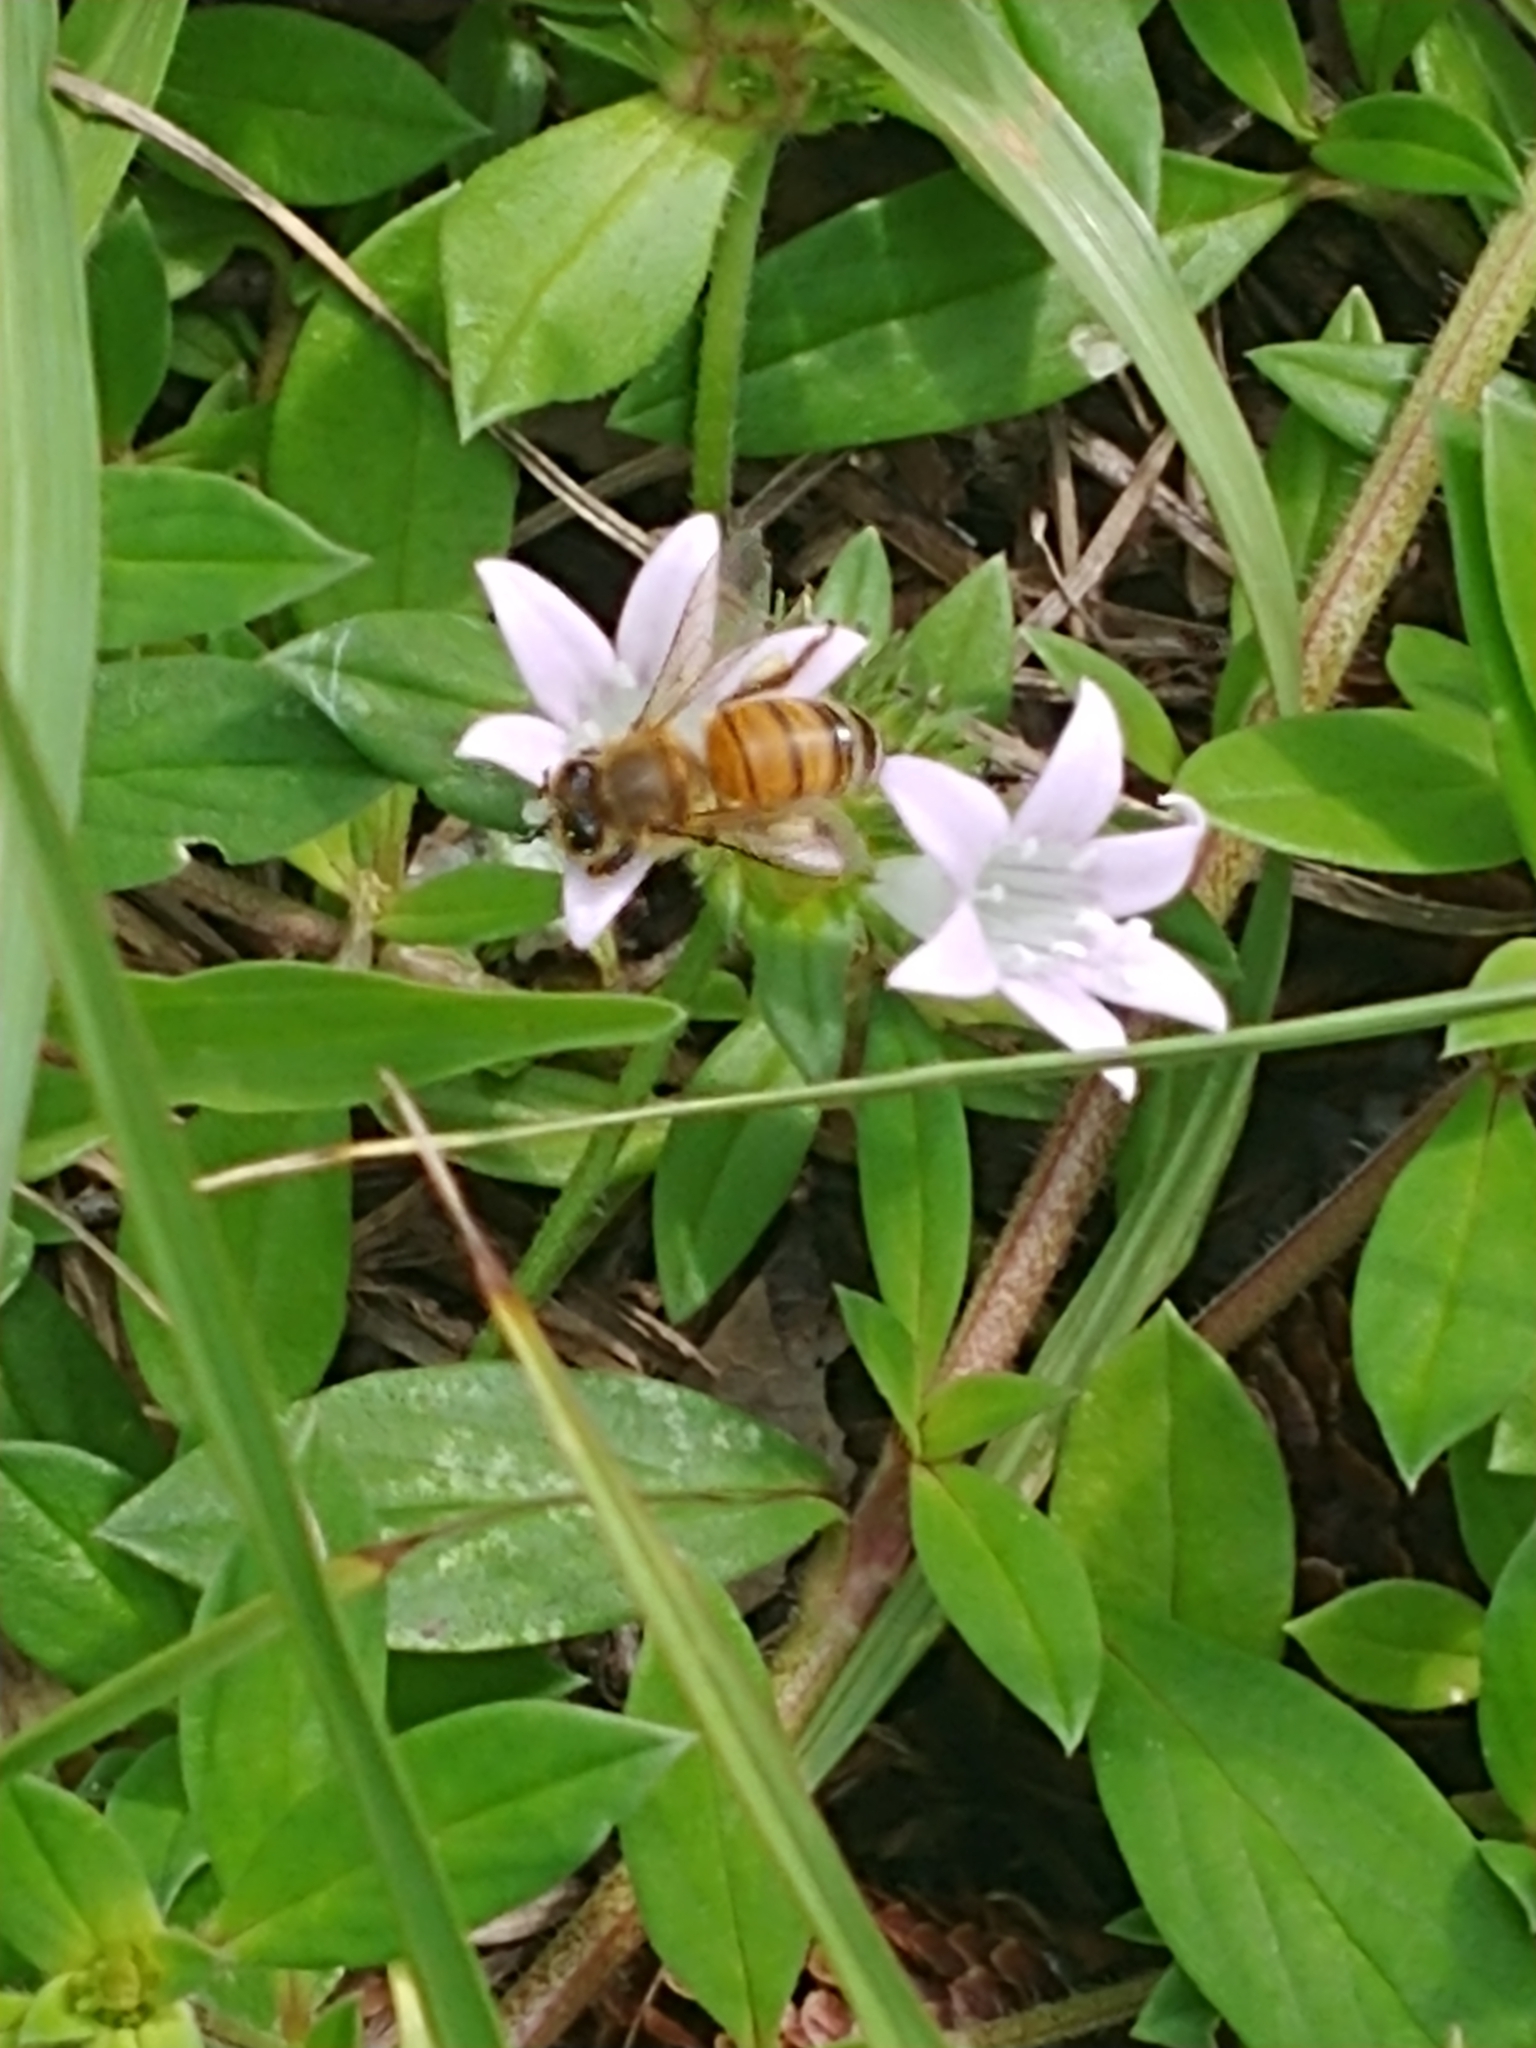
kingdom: Animalia
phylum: Arthropoda
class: Insecta
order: Hymenoptera
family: Apidae
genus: Apis
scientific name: Apis mellifera
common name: Honey bee
